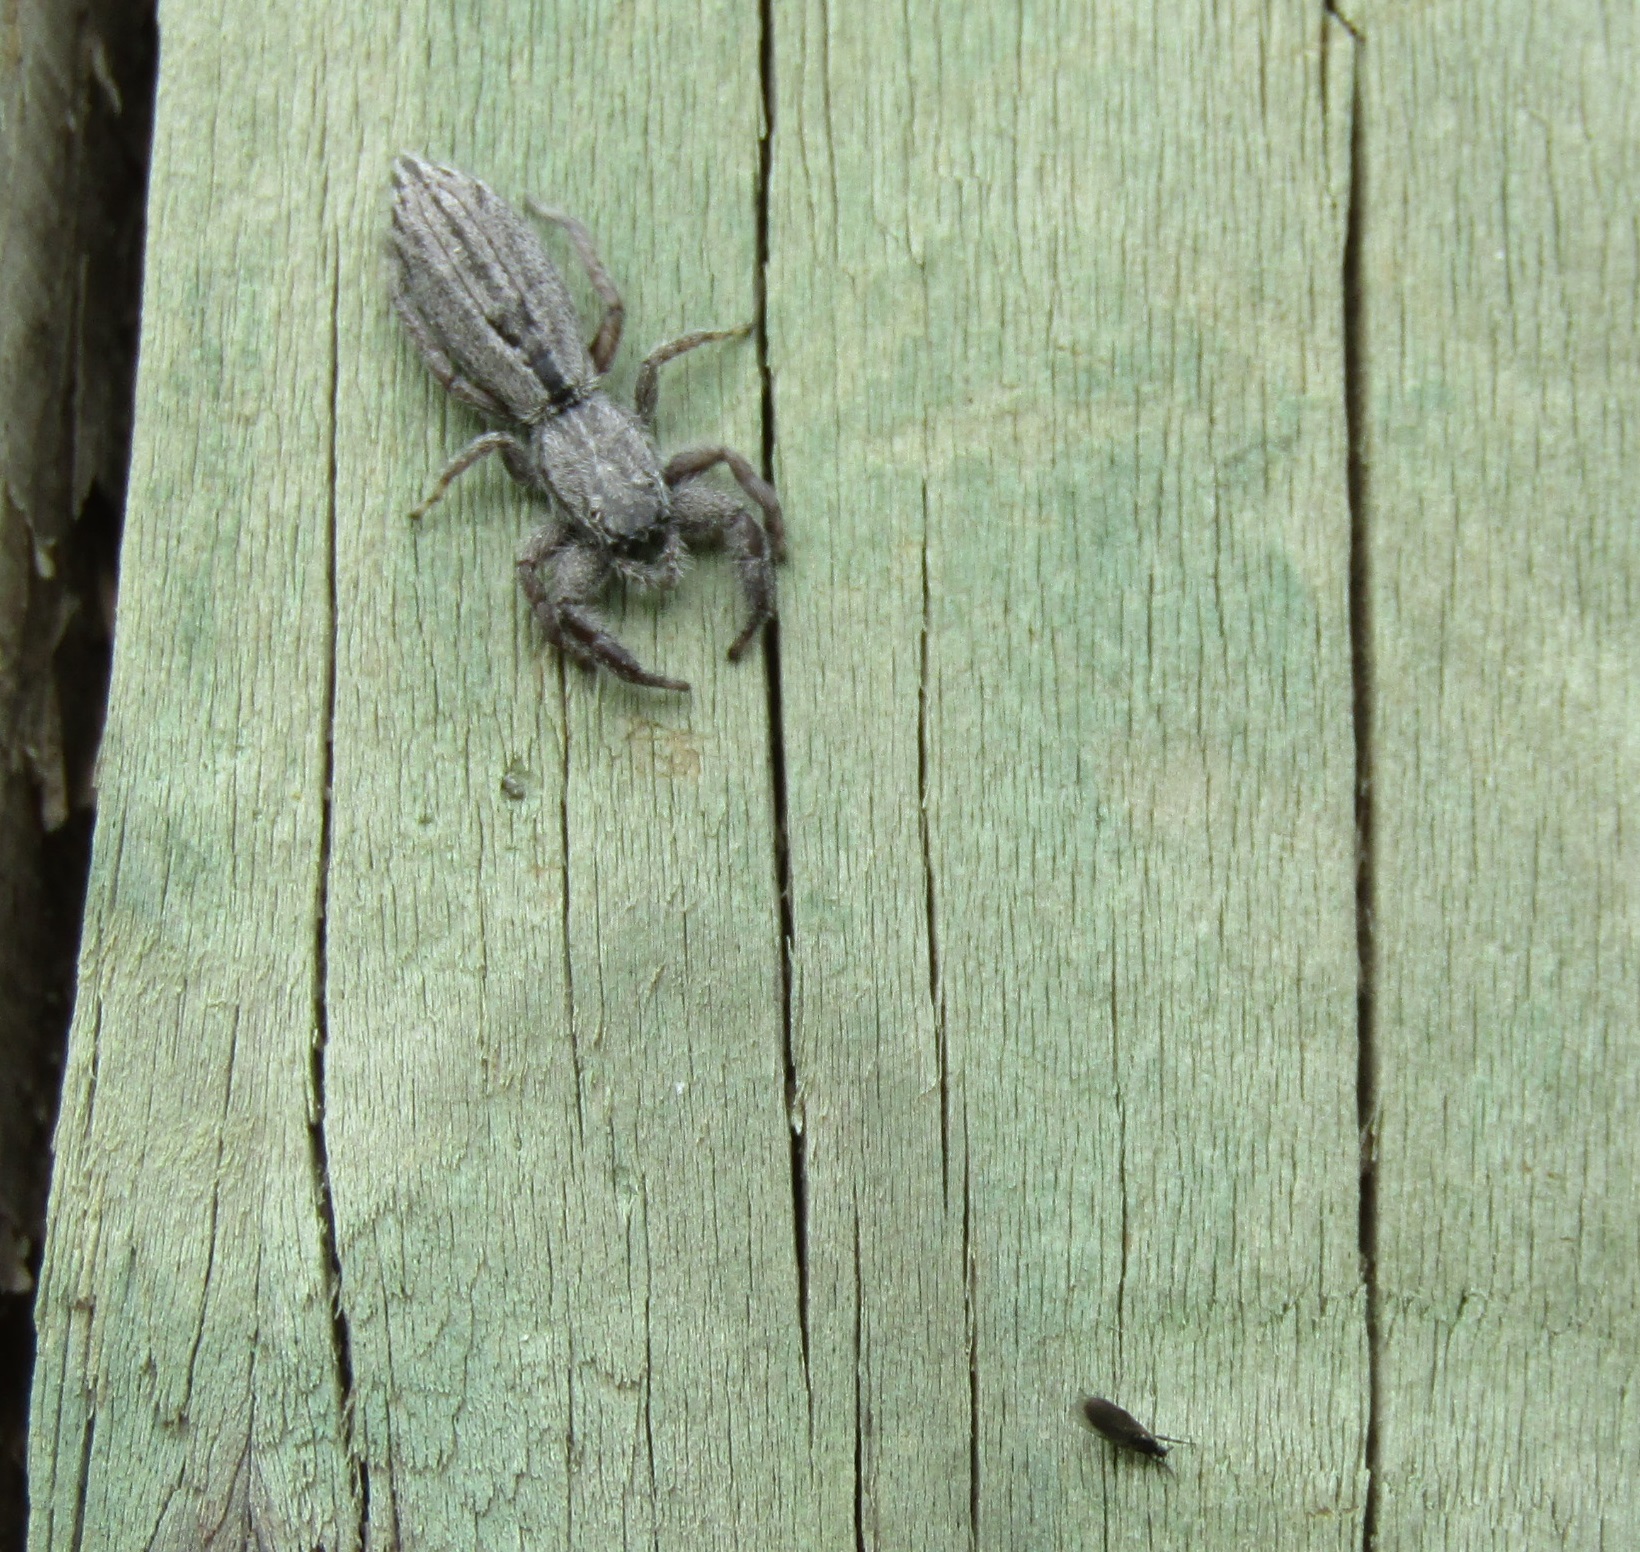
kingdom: Animalia
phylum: Arthropoda
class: Arachnida
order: Araneae
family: Salticidae
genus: Holoplatys
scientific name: Holoplatys apressus
